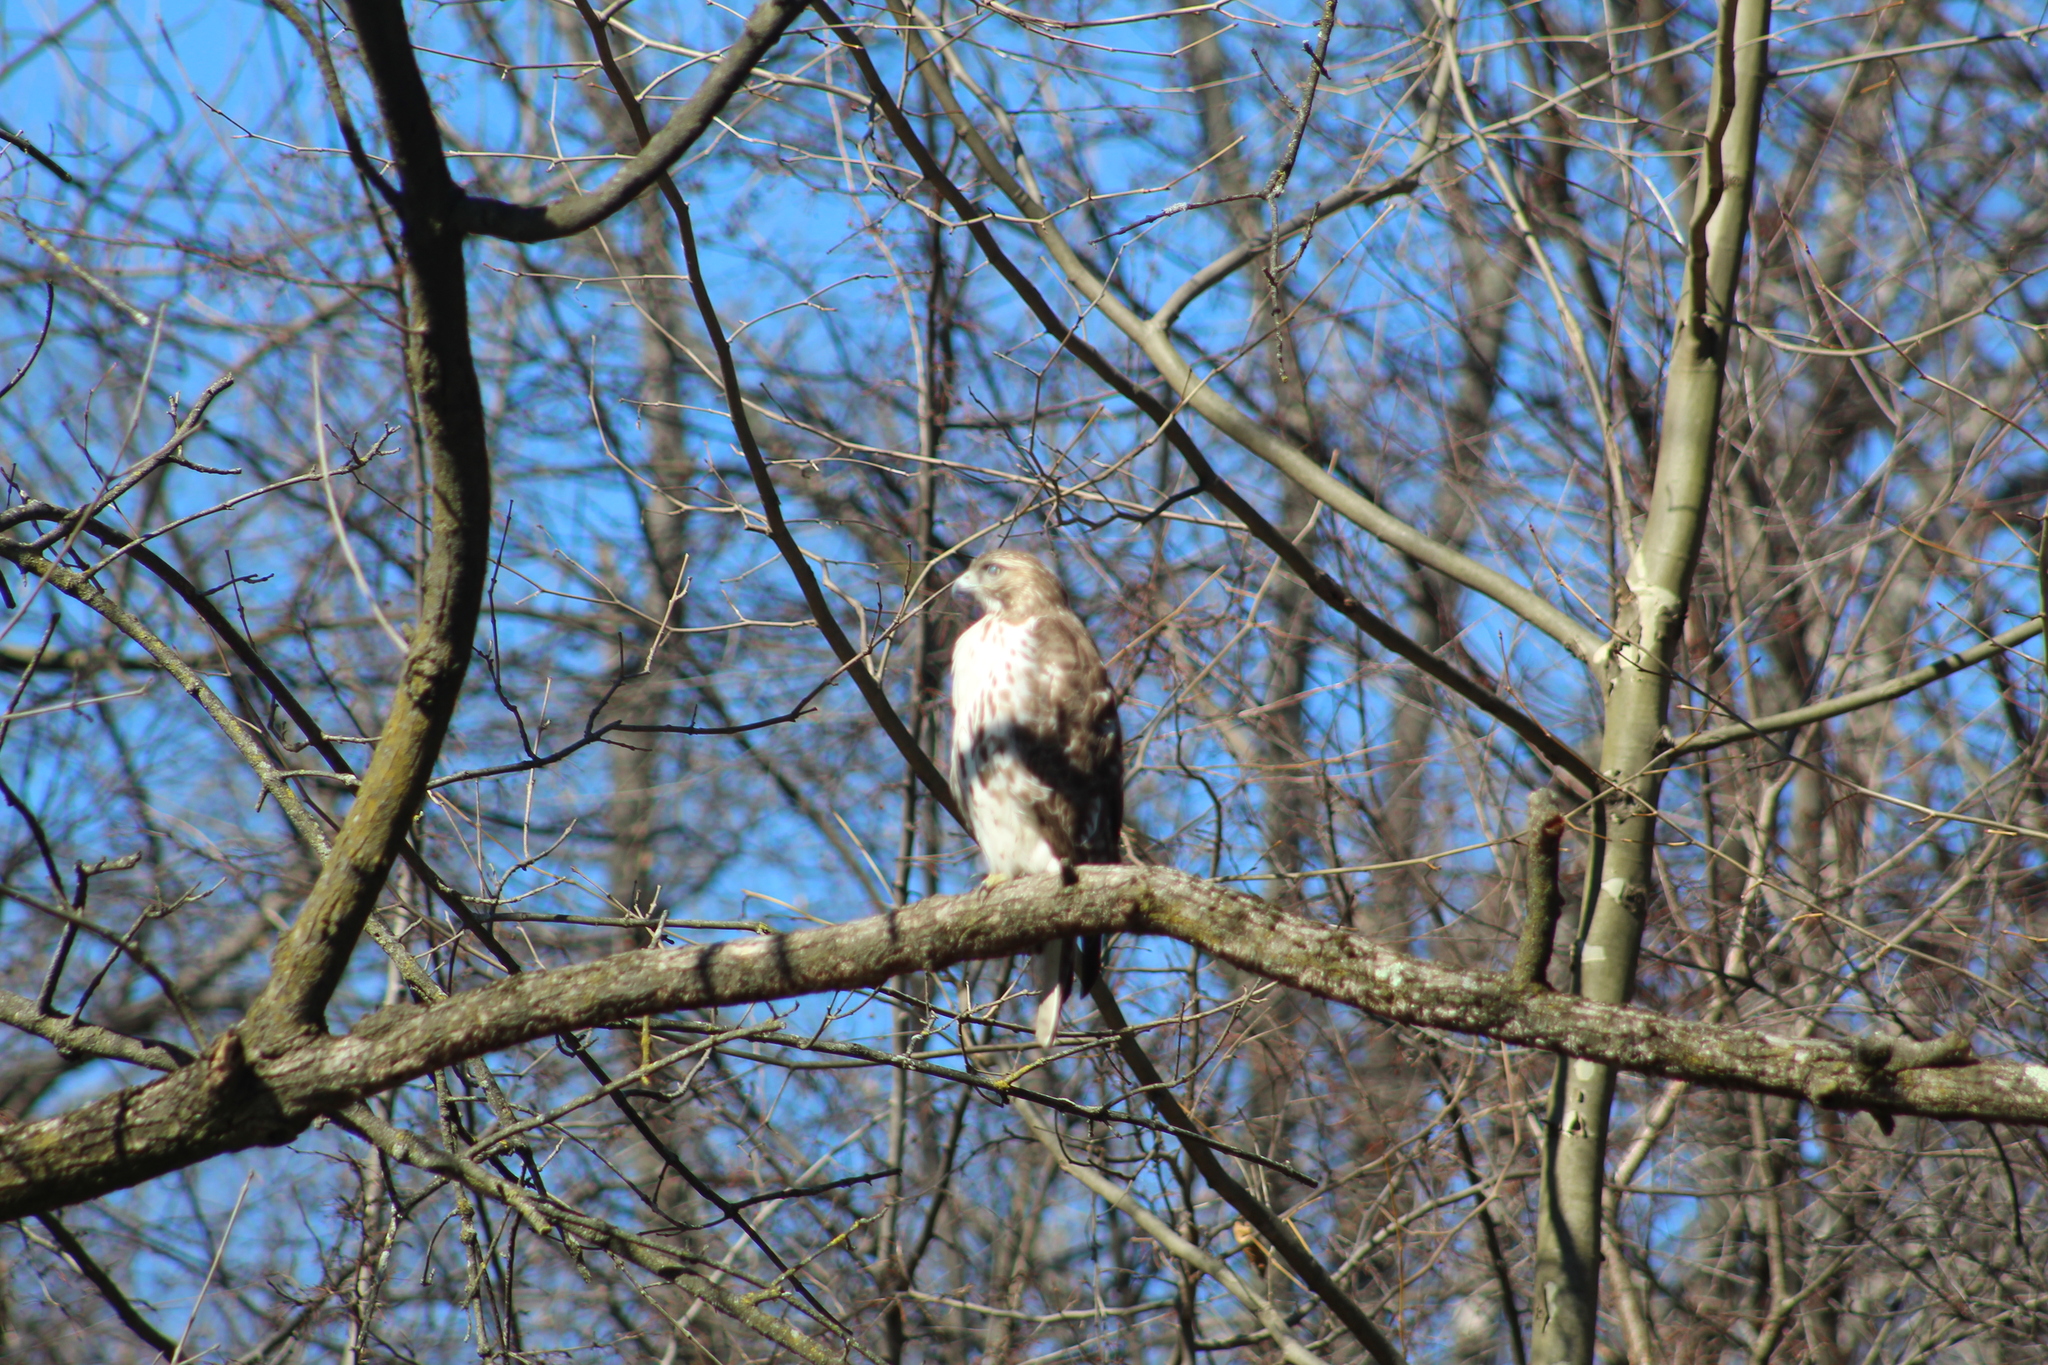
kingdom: Animalia
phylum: Chordata
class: Aves
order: Accipitriformes
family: Accipitridae
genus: Buteo
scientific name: Buteo jamaicensis
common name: Red-tailed hawk
